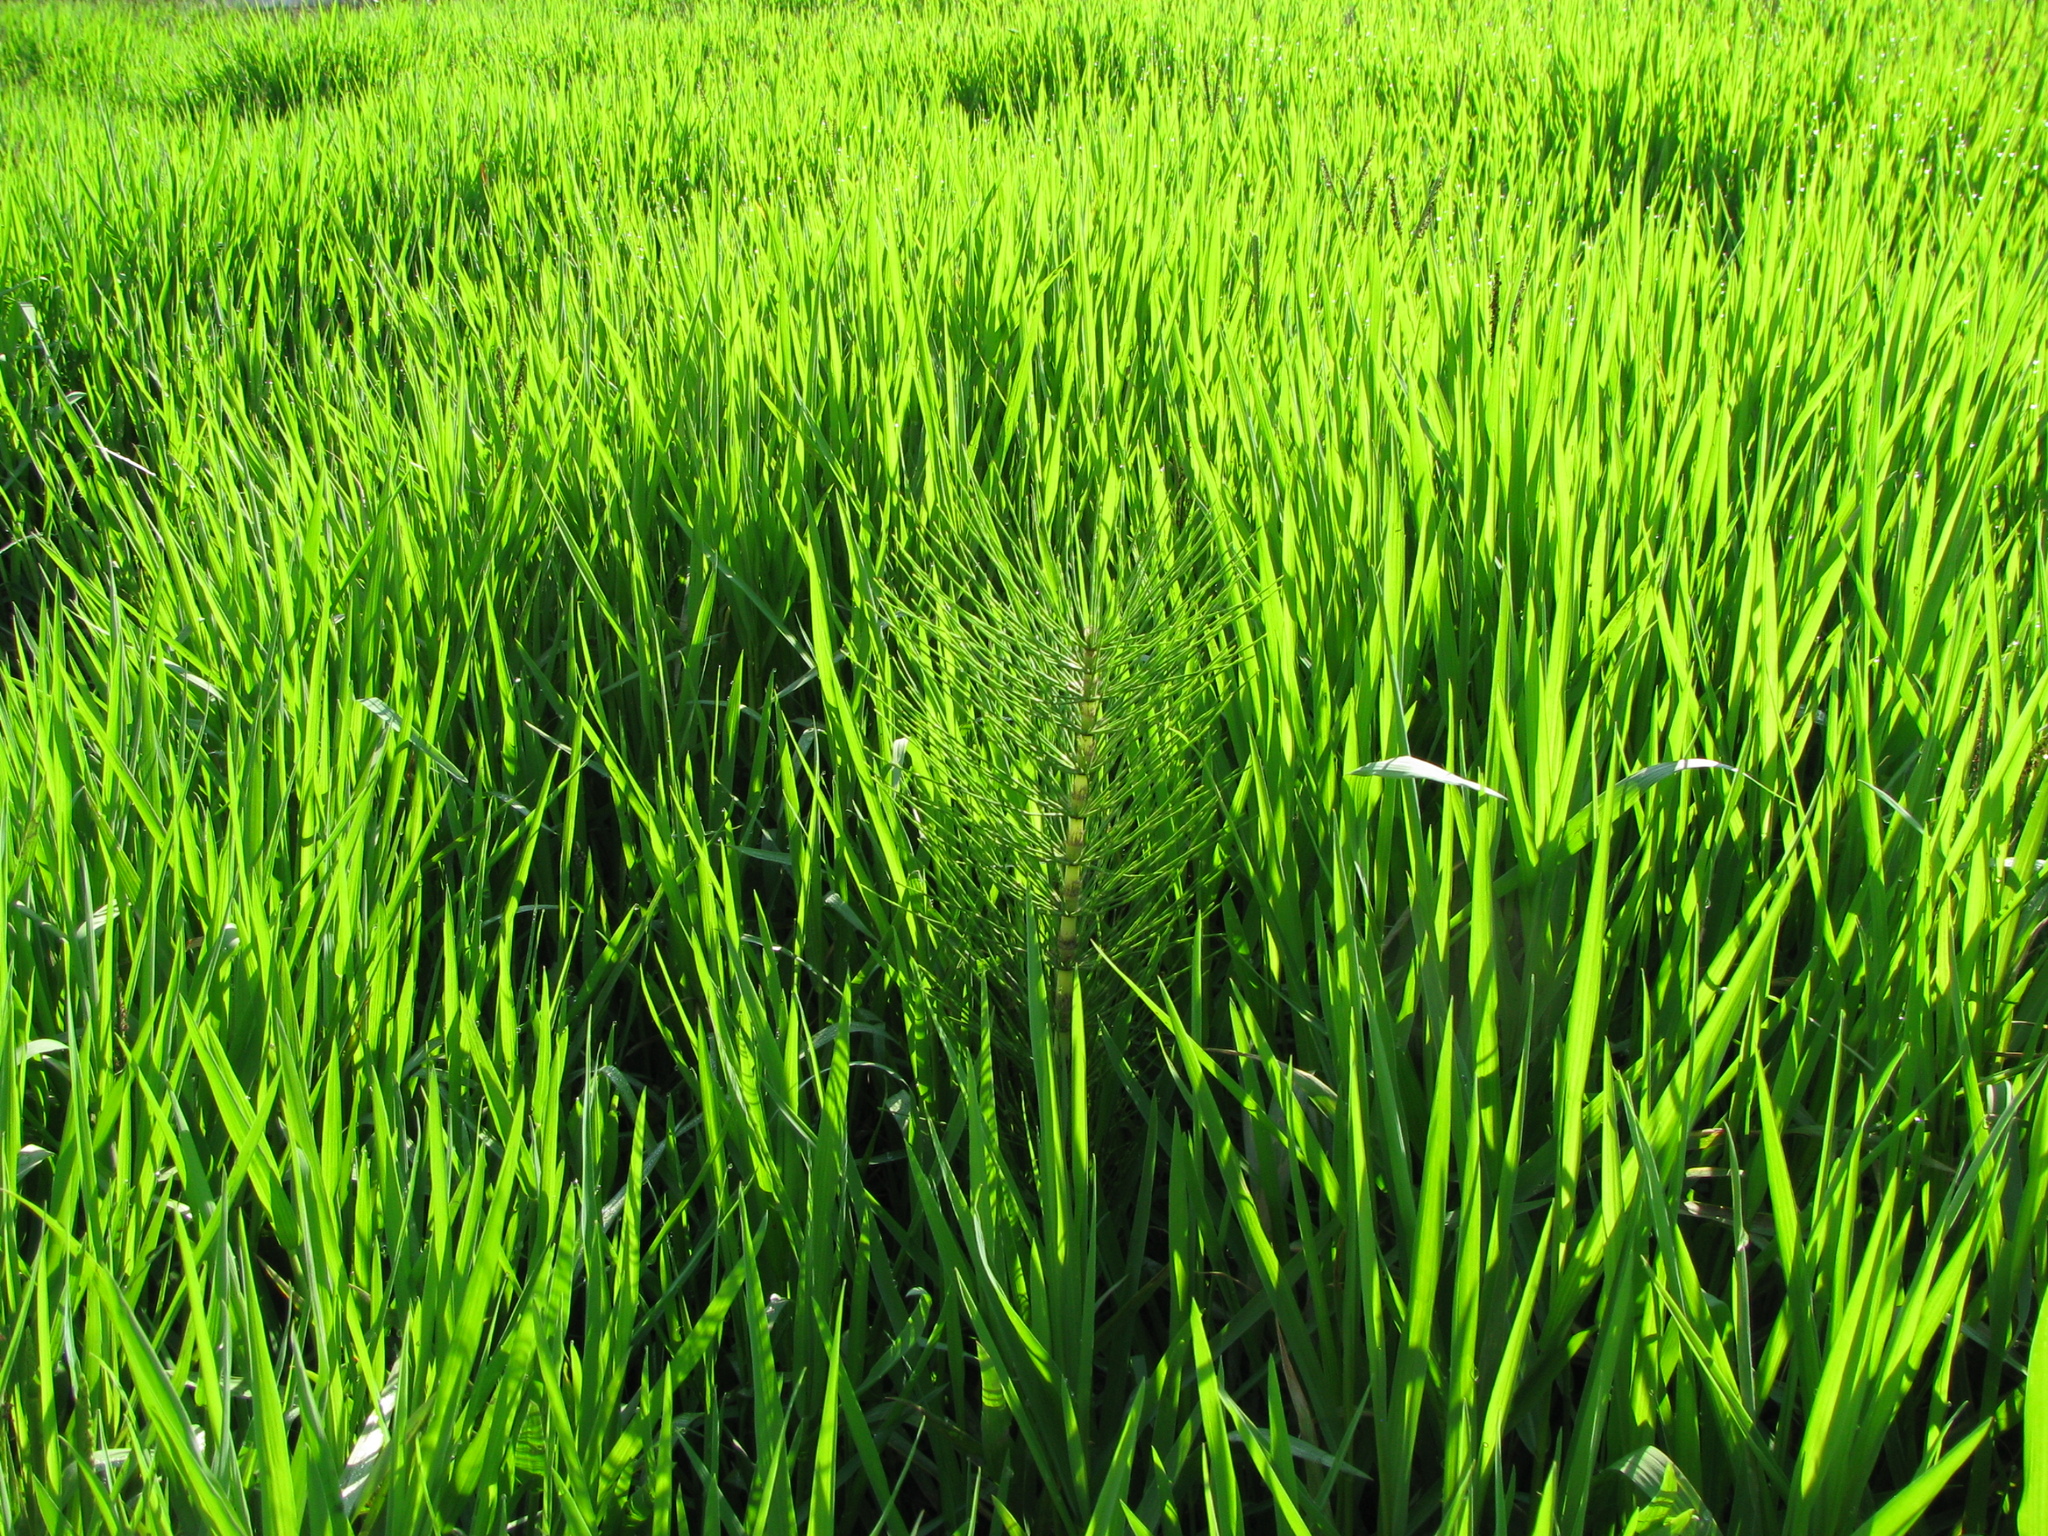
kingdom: Plantae
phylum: Tracheophyta
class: Polypodiopsida
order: Equisetales
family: Equisetaceae
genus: Equisetum
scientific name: Equisetum telmateia
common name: Great horsetail
